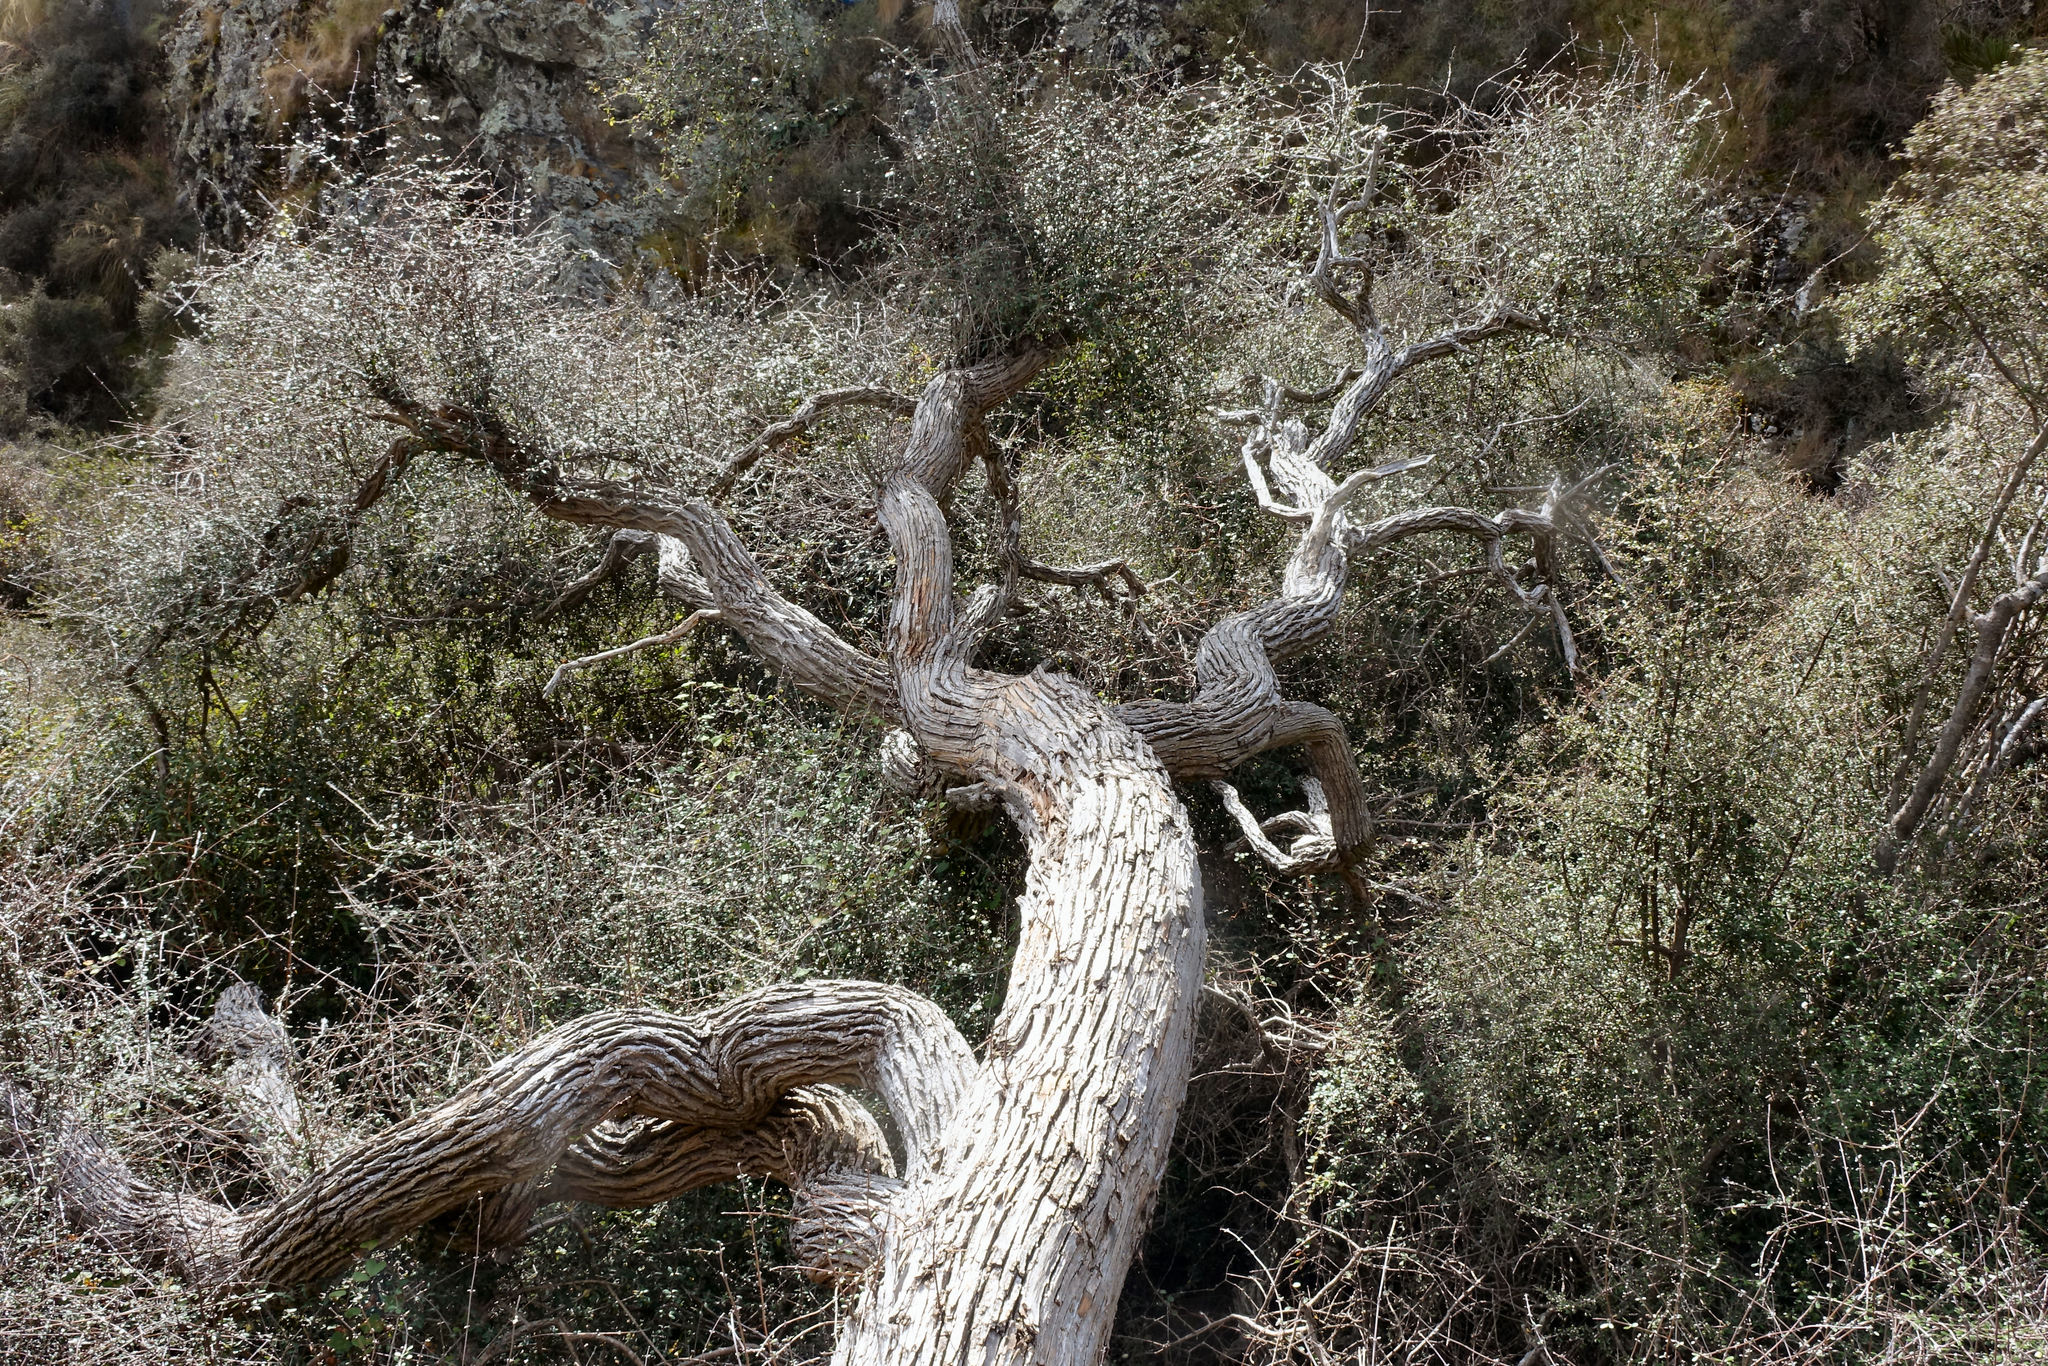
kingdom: Plantae
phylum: Tracheophyta
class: Magnoliopsida
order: Asterales
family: Asteraceae
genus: Olearia
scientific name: Olearia fimbriata
